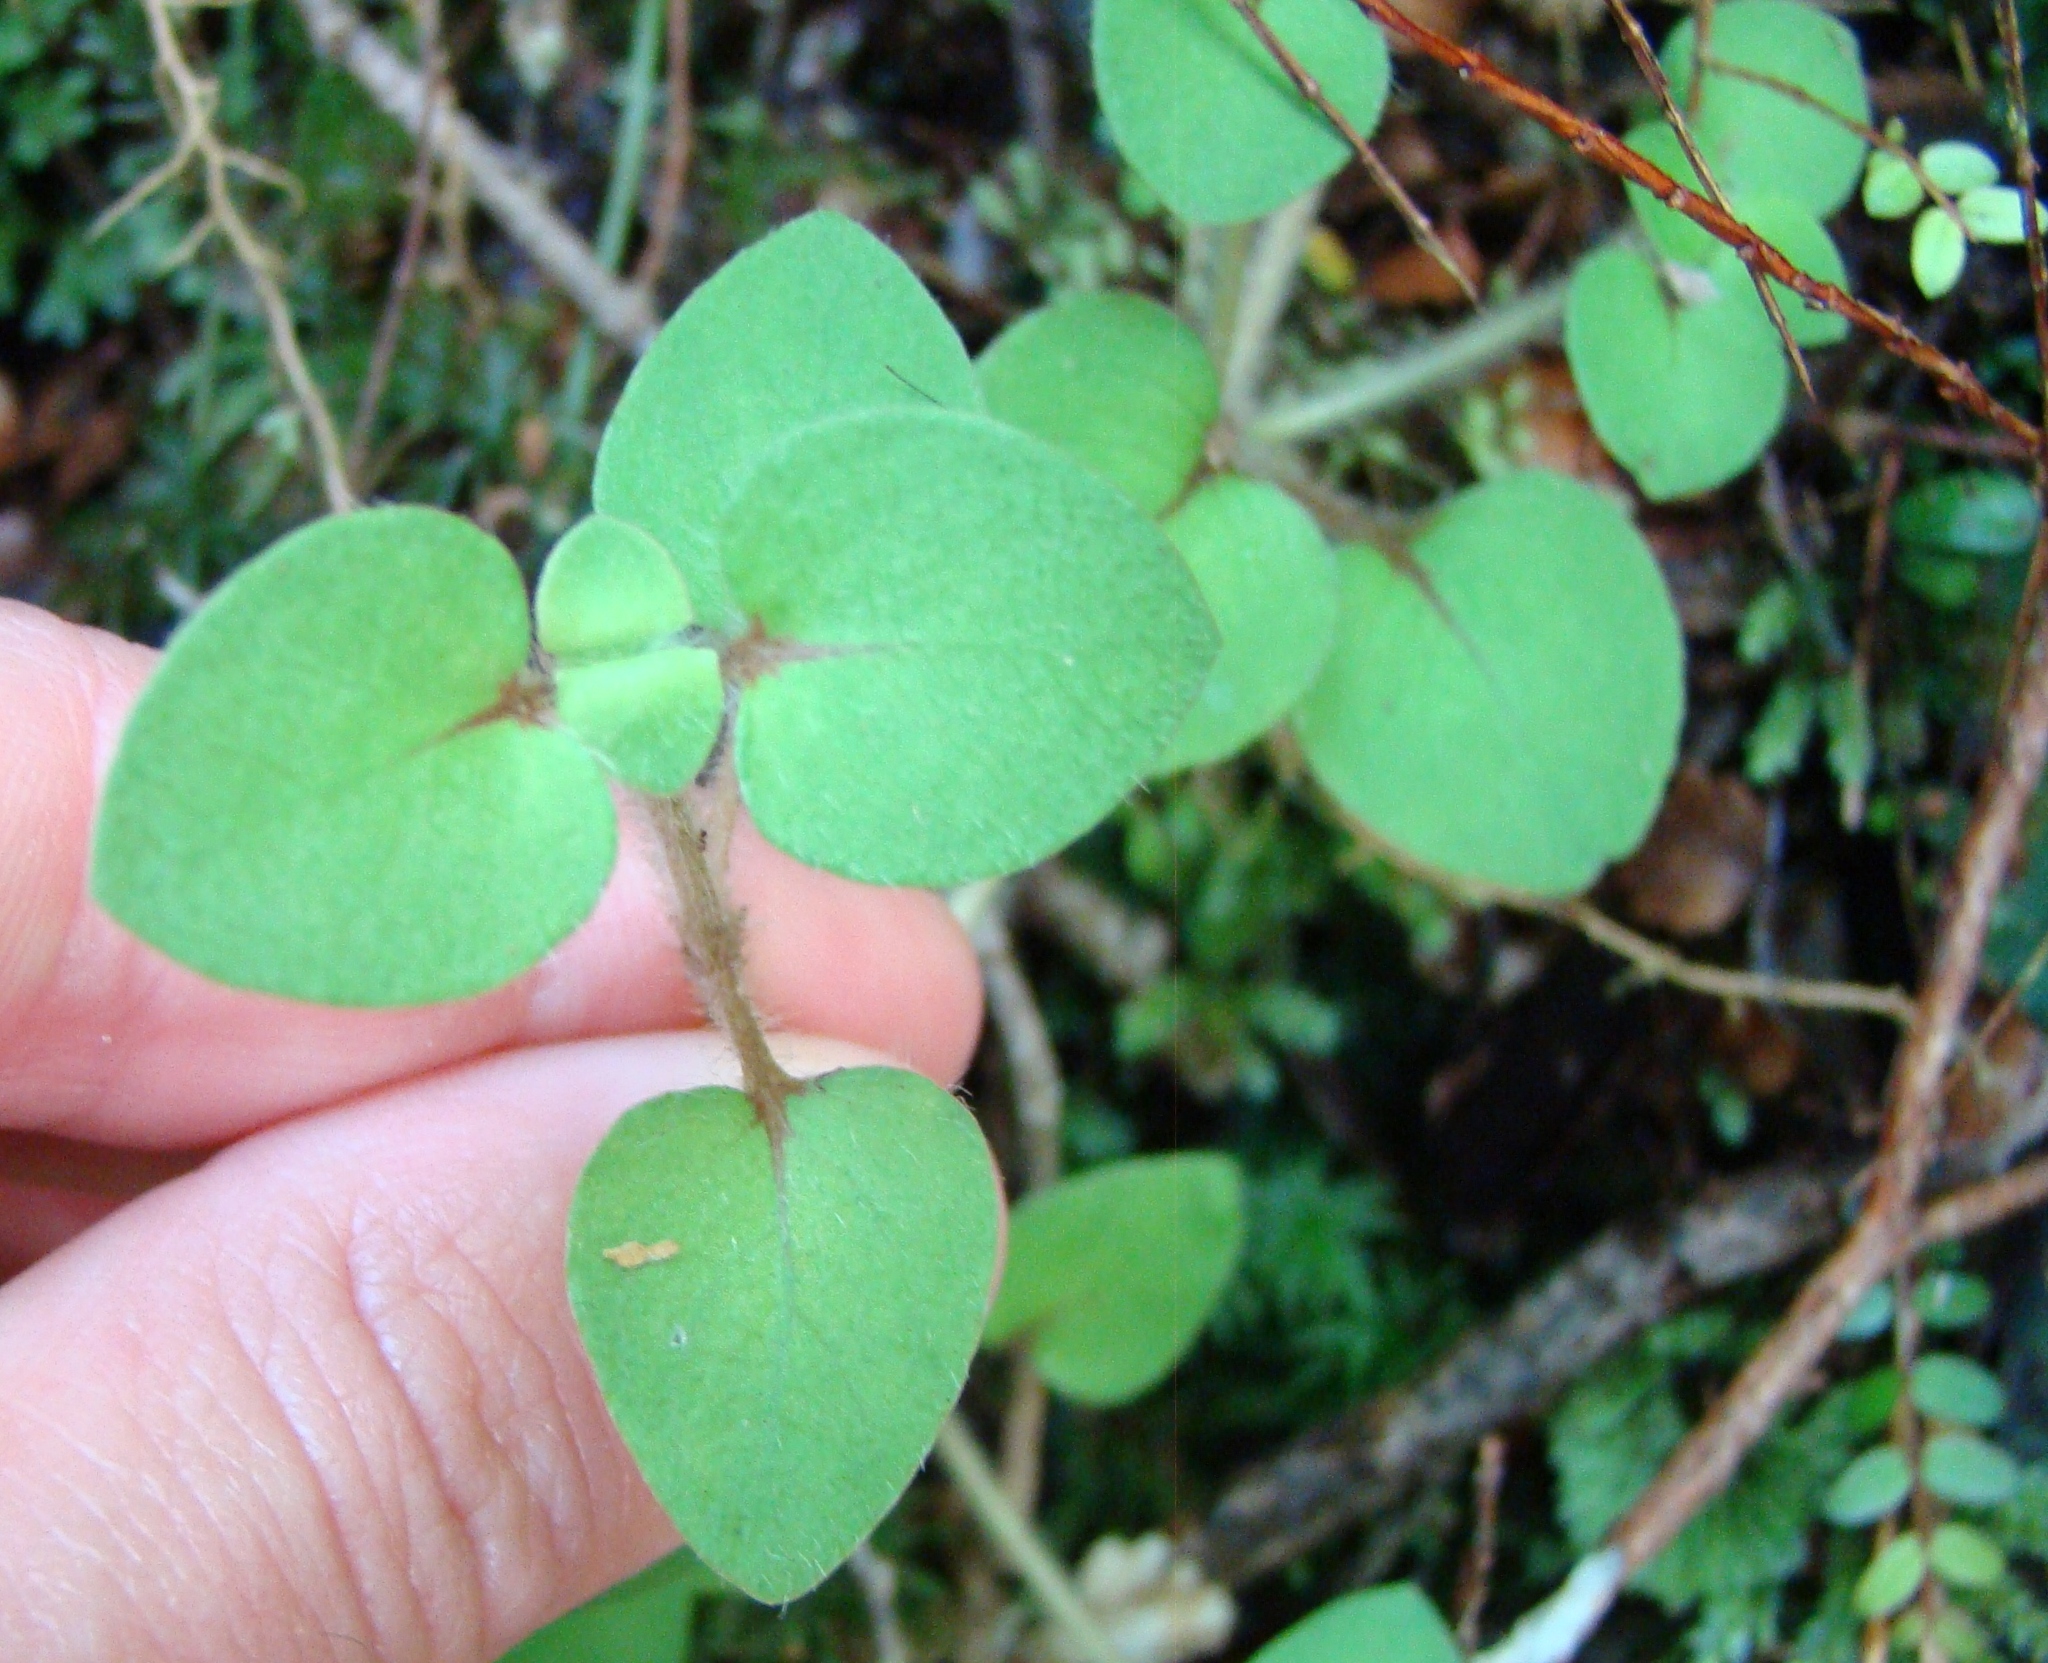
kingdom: Plantae
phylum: Tracheophyta
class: Magnoliopsida
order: Gentianales
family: Rubiaceae
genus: Nertera
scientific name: Nertera villosa
